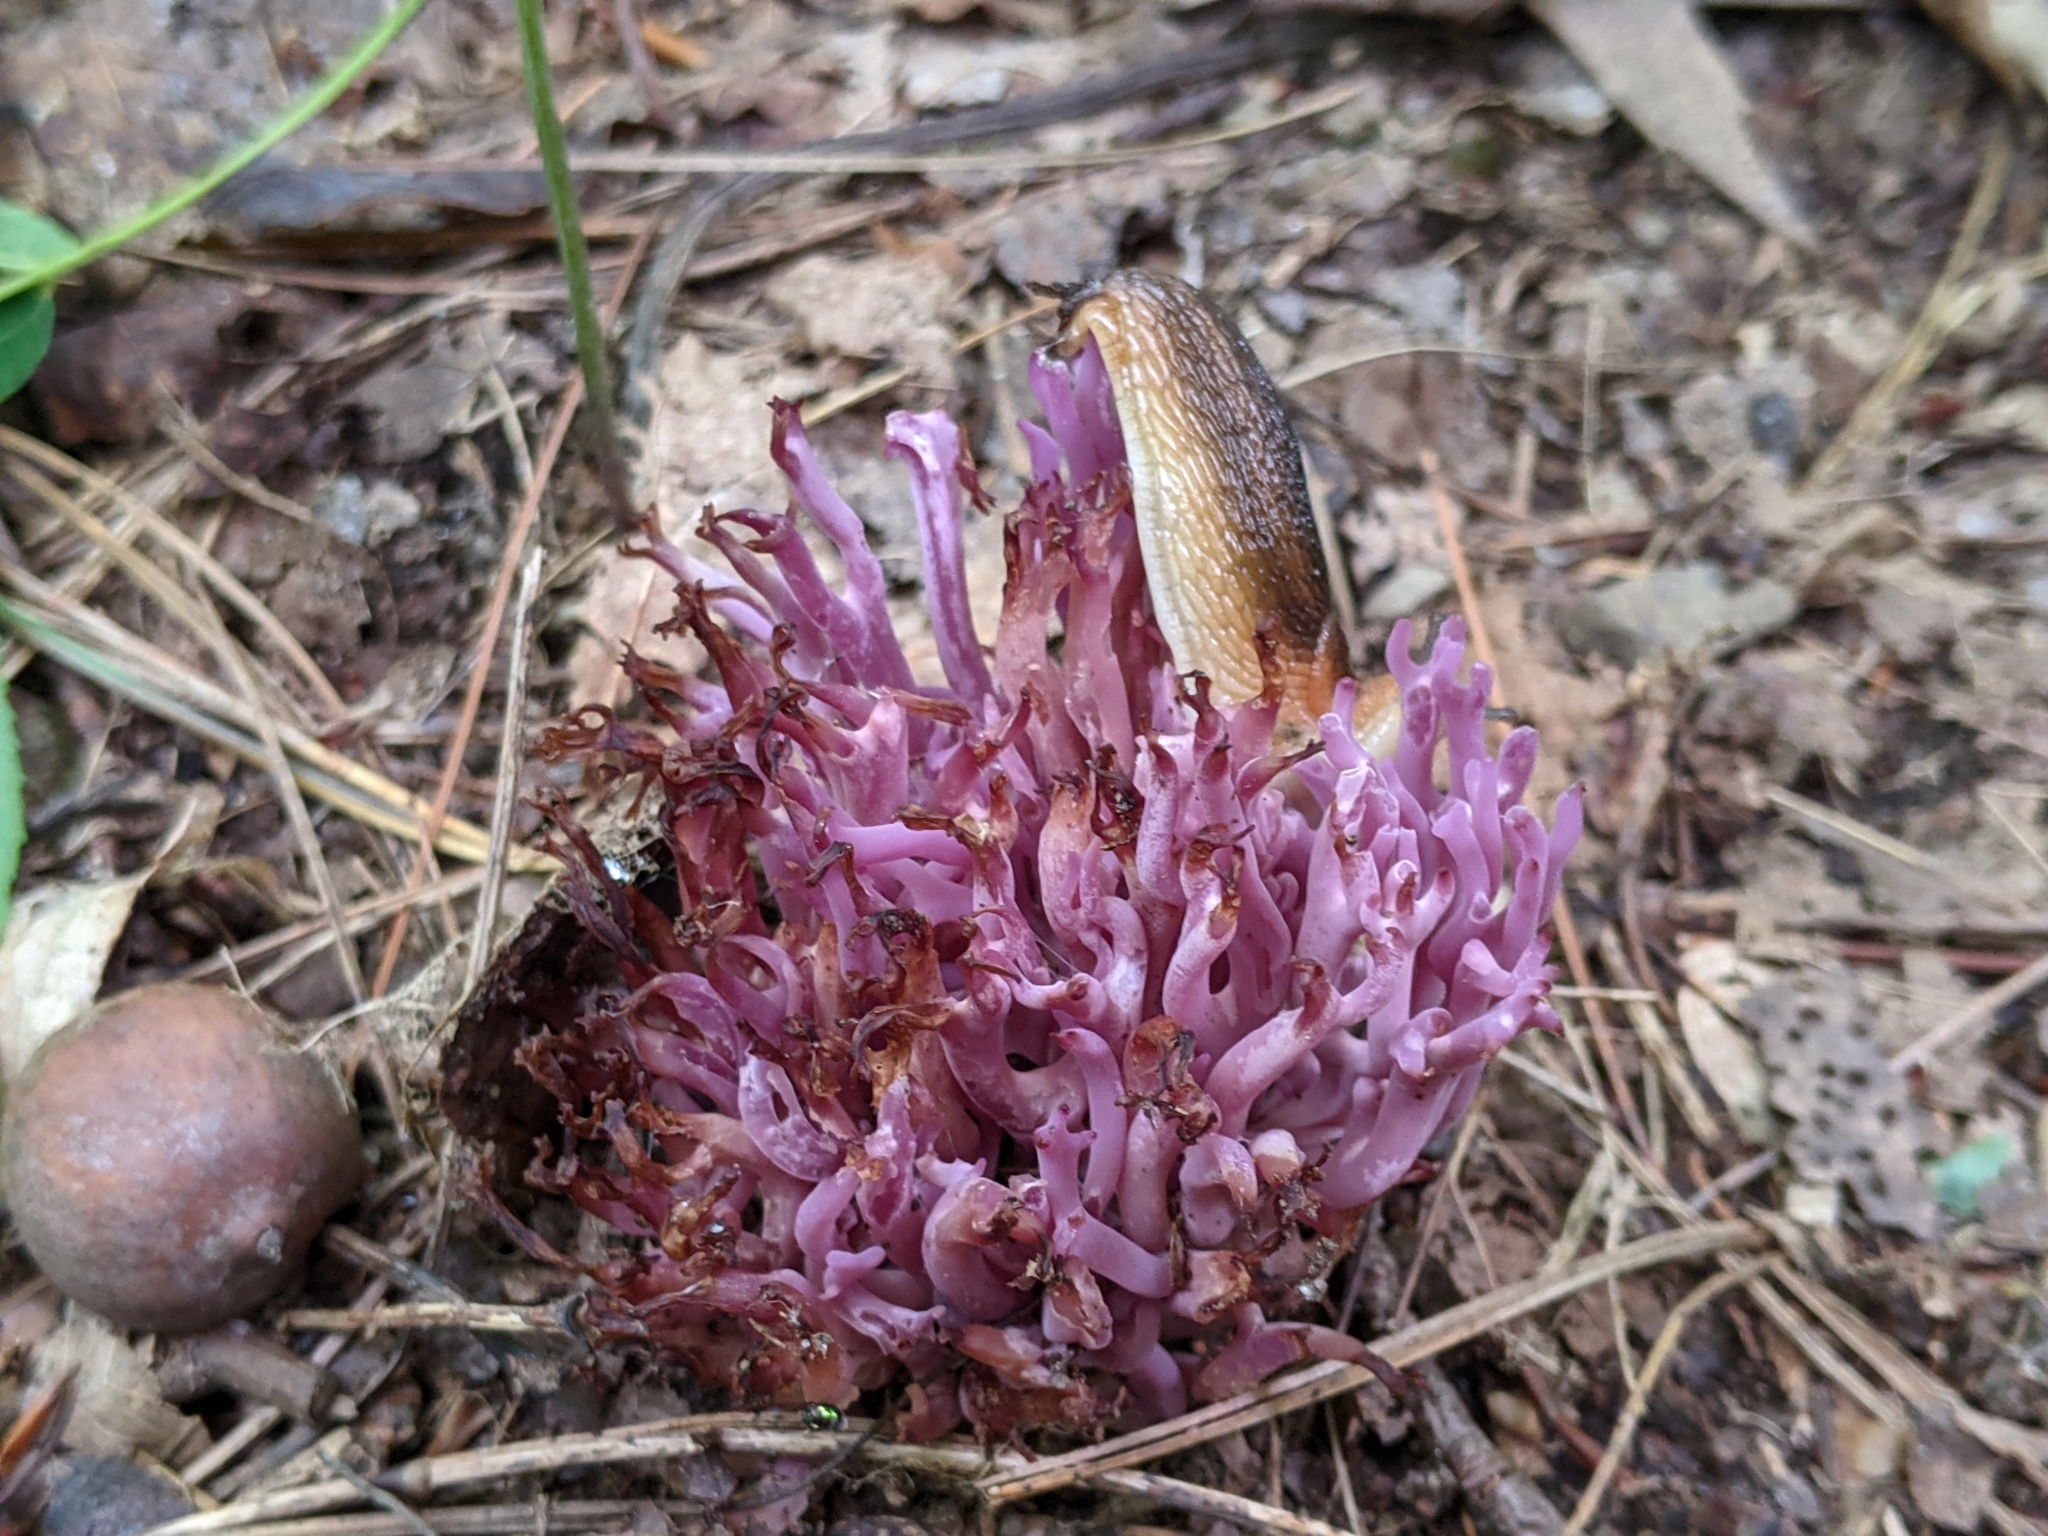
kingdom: Fungi
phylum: Basidiomycota
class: Agaricomycetes
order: Agaricales
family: Clavariaceae
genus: Clavaria
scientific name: Clavaria zollingeri
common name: Violet coral
